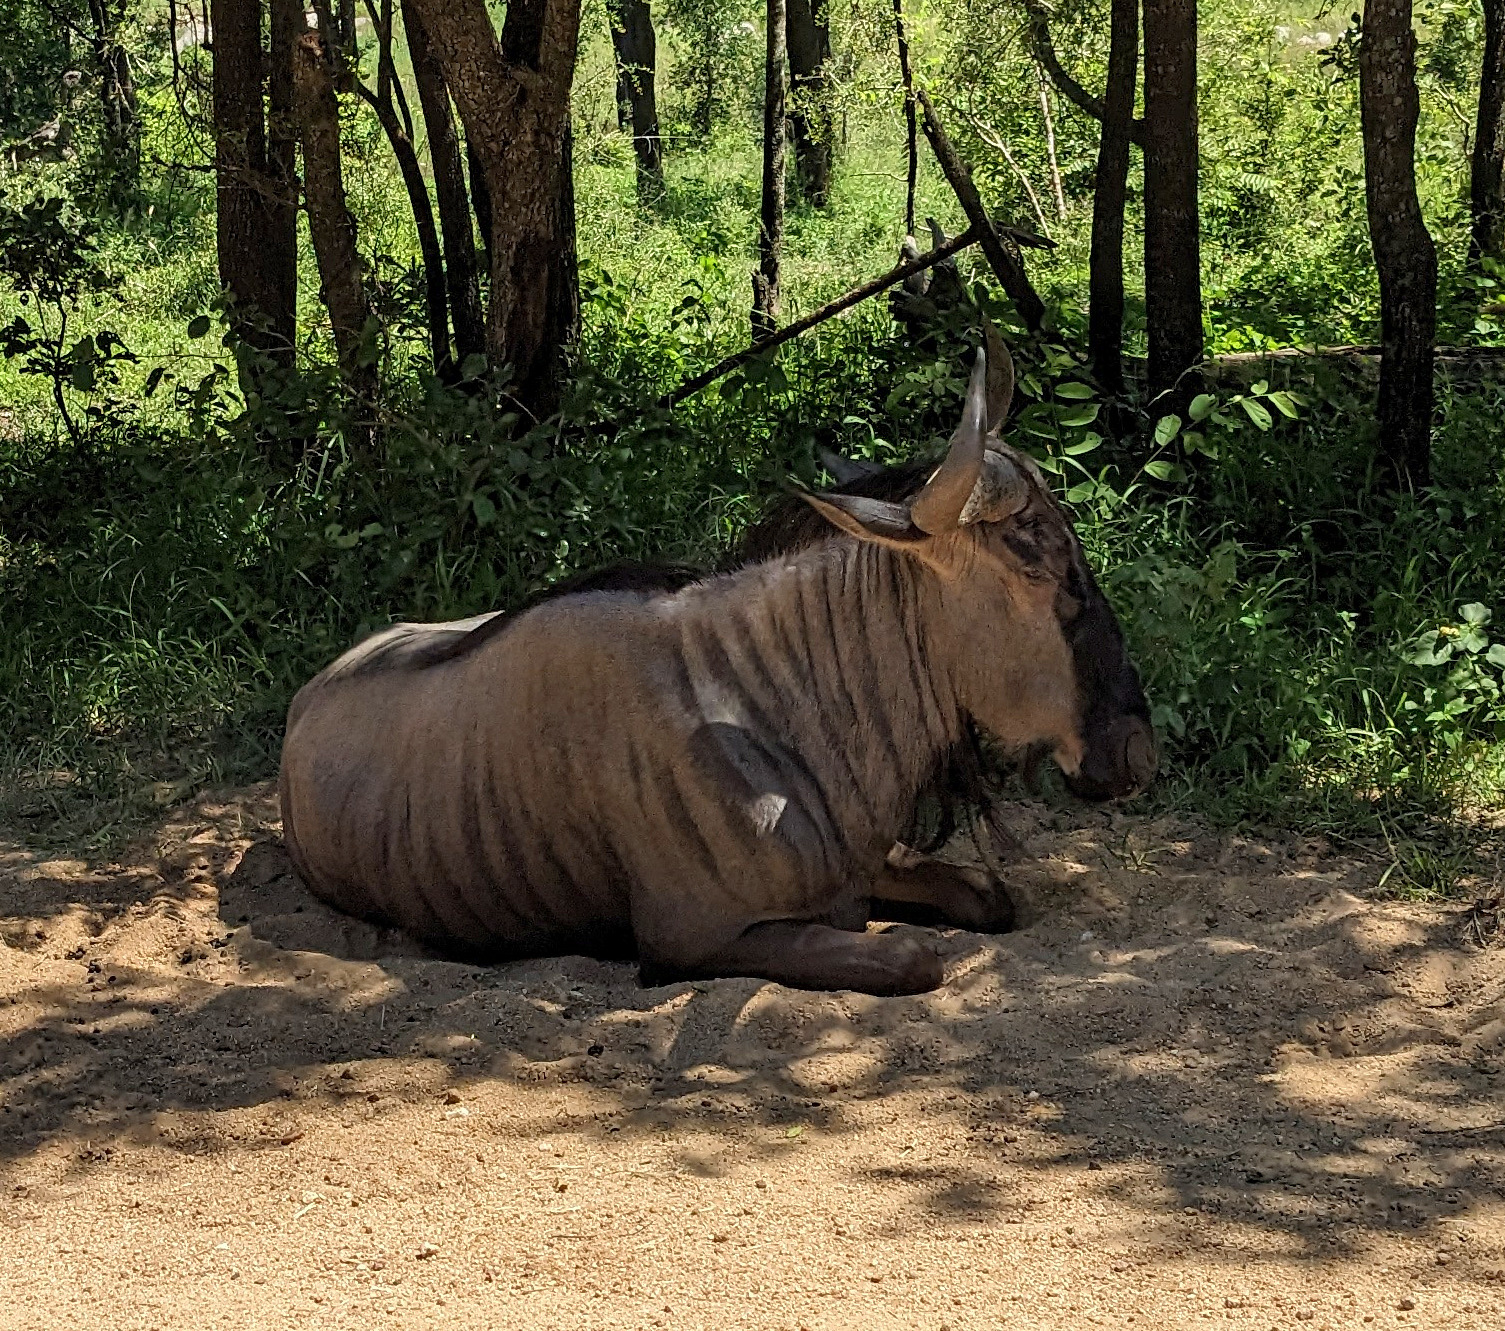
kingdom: Animalia
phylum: Chordata
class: Mammalia
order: Artiodactyla
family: Bovidae
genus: Connochaetes
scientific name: Connochaetes taurinus
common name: Blue wildebeest
